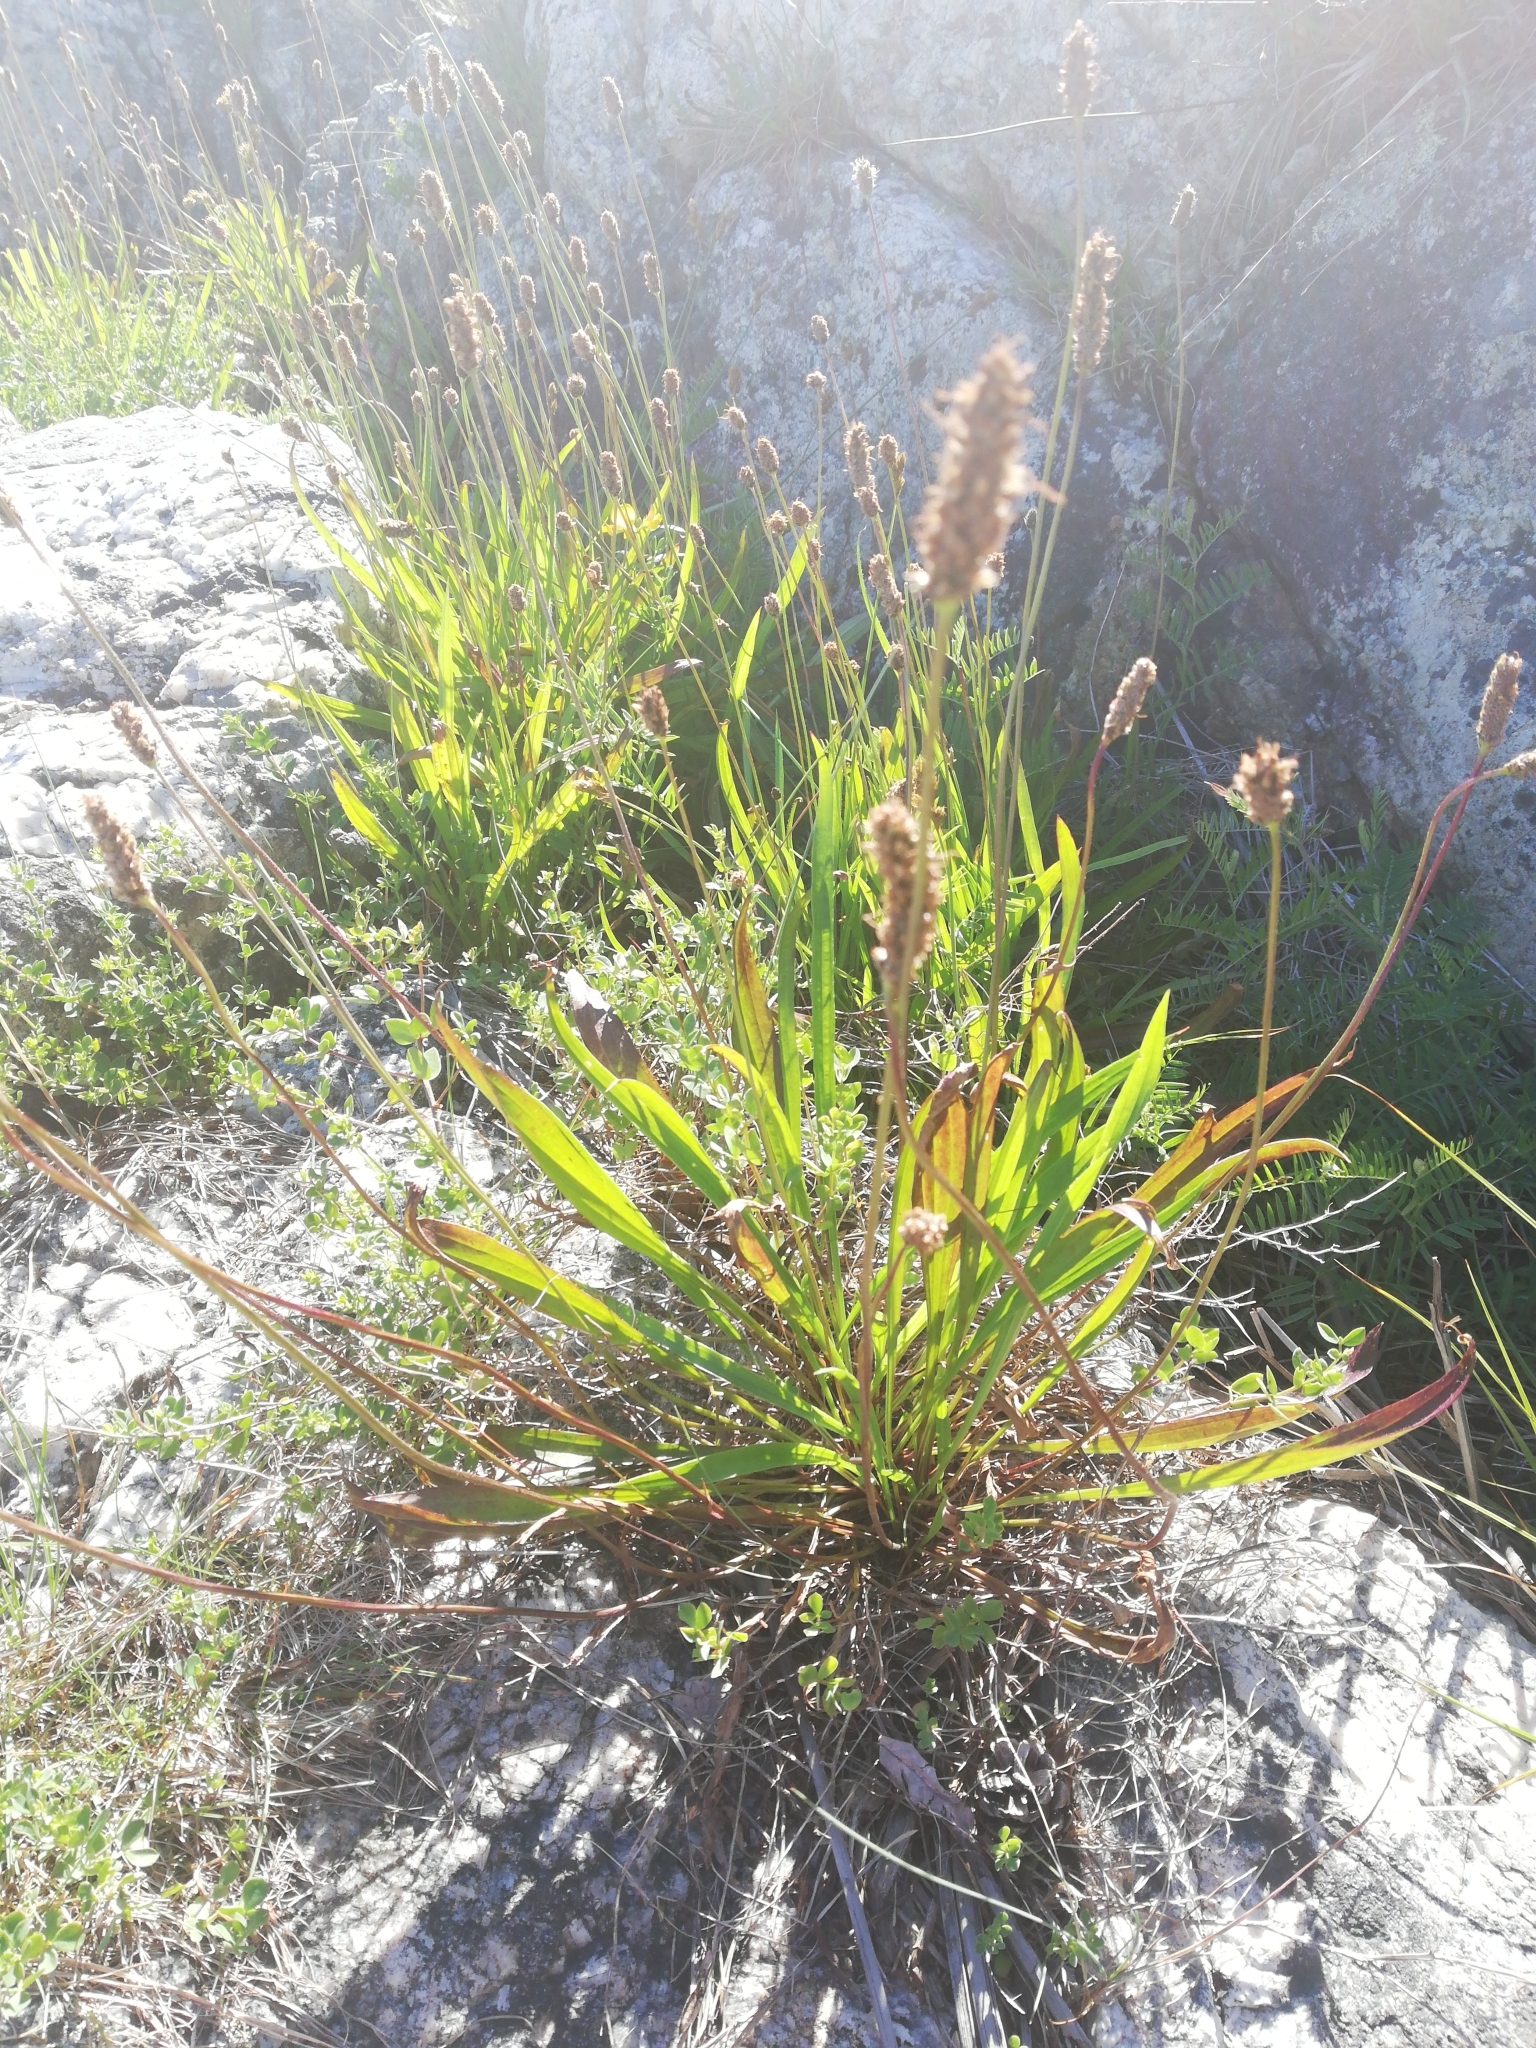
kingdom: Plantae
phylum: Tracheophyta
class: Magnoliopsida
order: Lamiales
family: Plantaginaceae
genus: Plantago
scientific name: Plantago lanceolata
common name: Ribwort plantain
